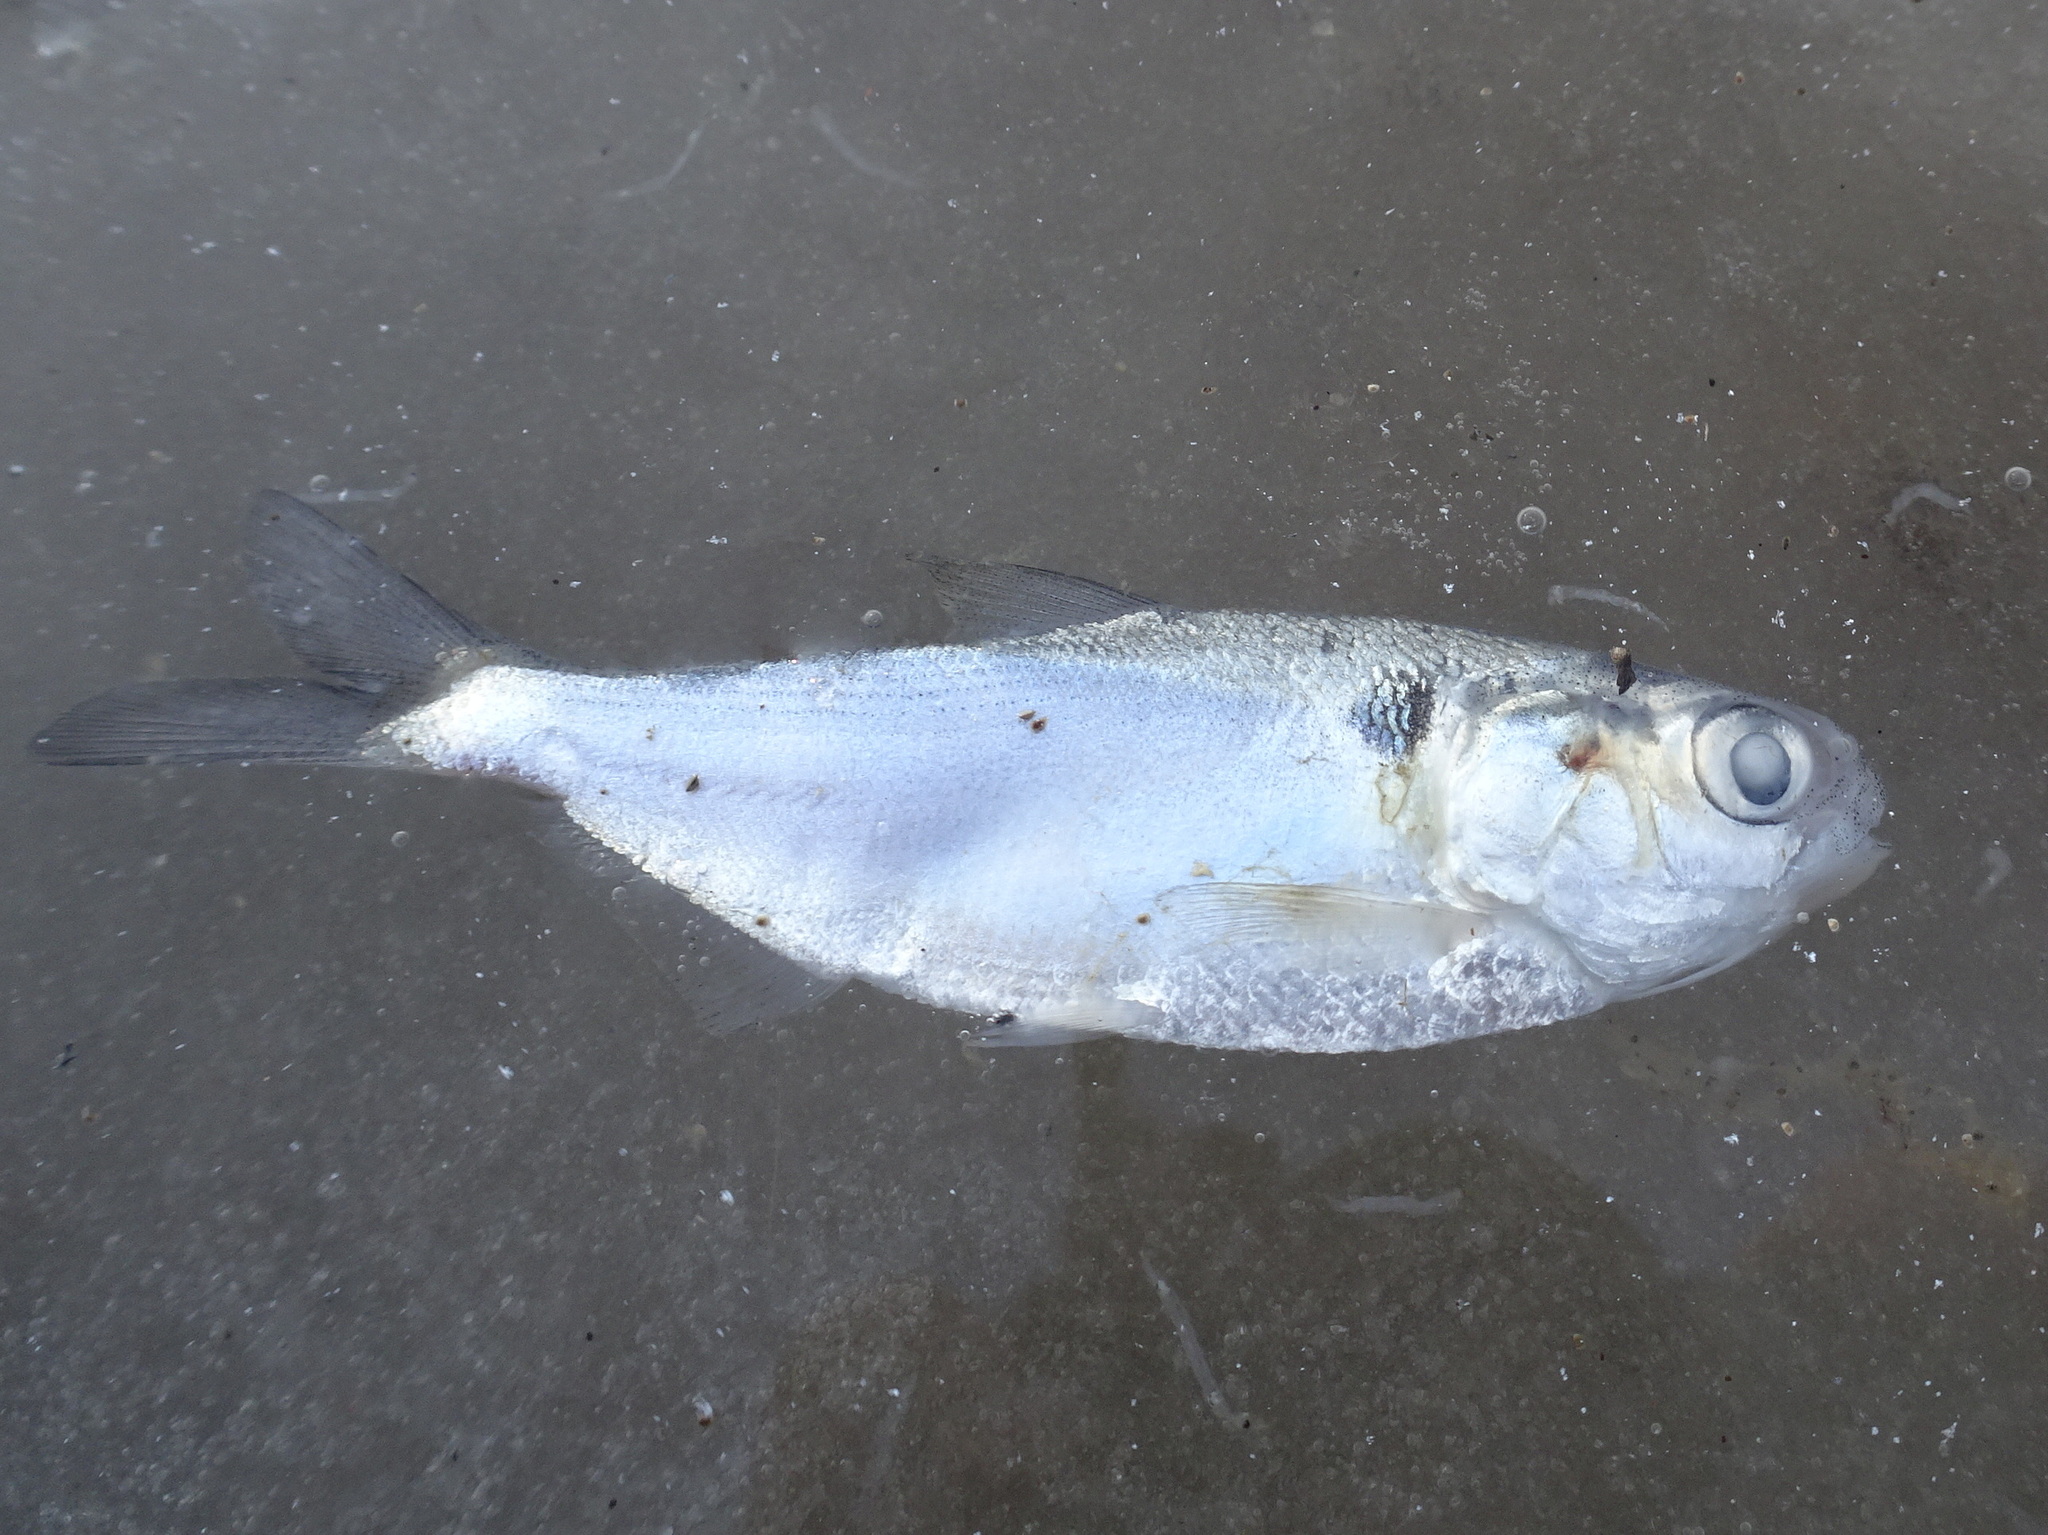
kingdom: Animalia
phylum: Chordata
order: Clupeiformes
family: Clupeidae
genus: Dorosoma
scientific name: Dorosoma cepedianum
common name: Gizzard shad
